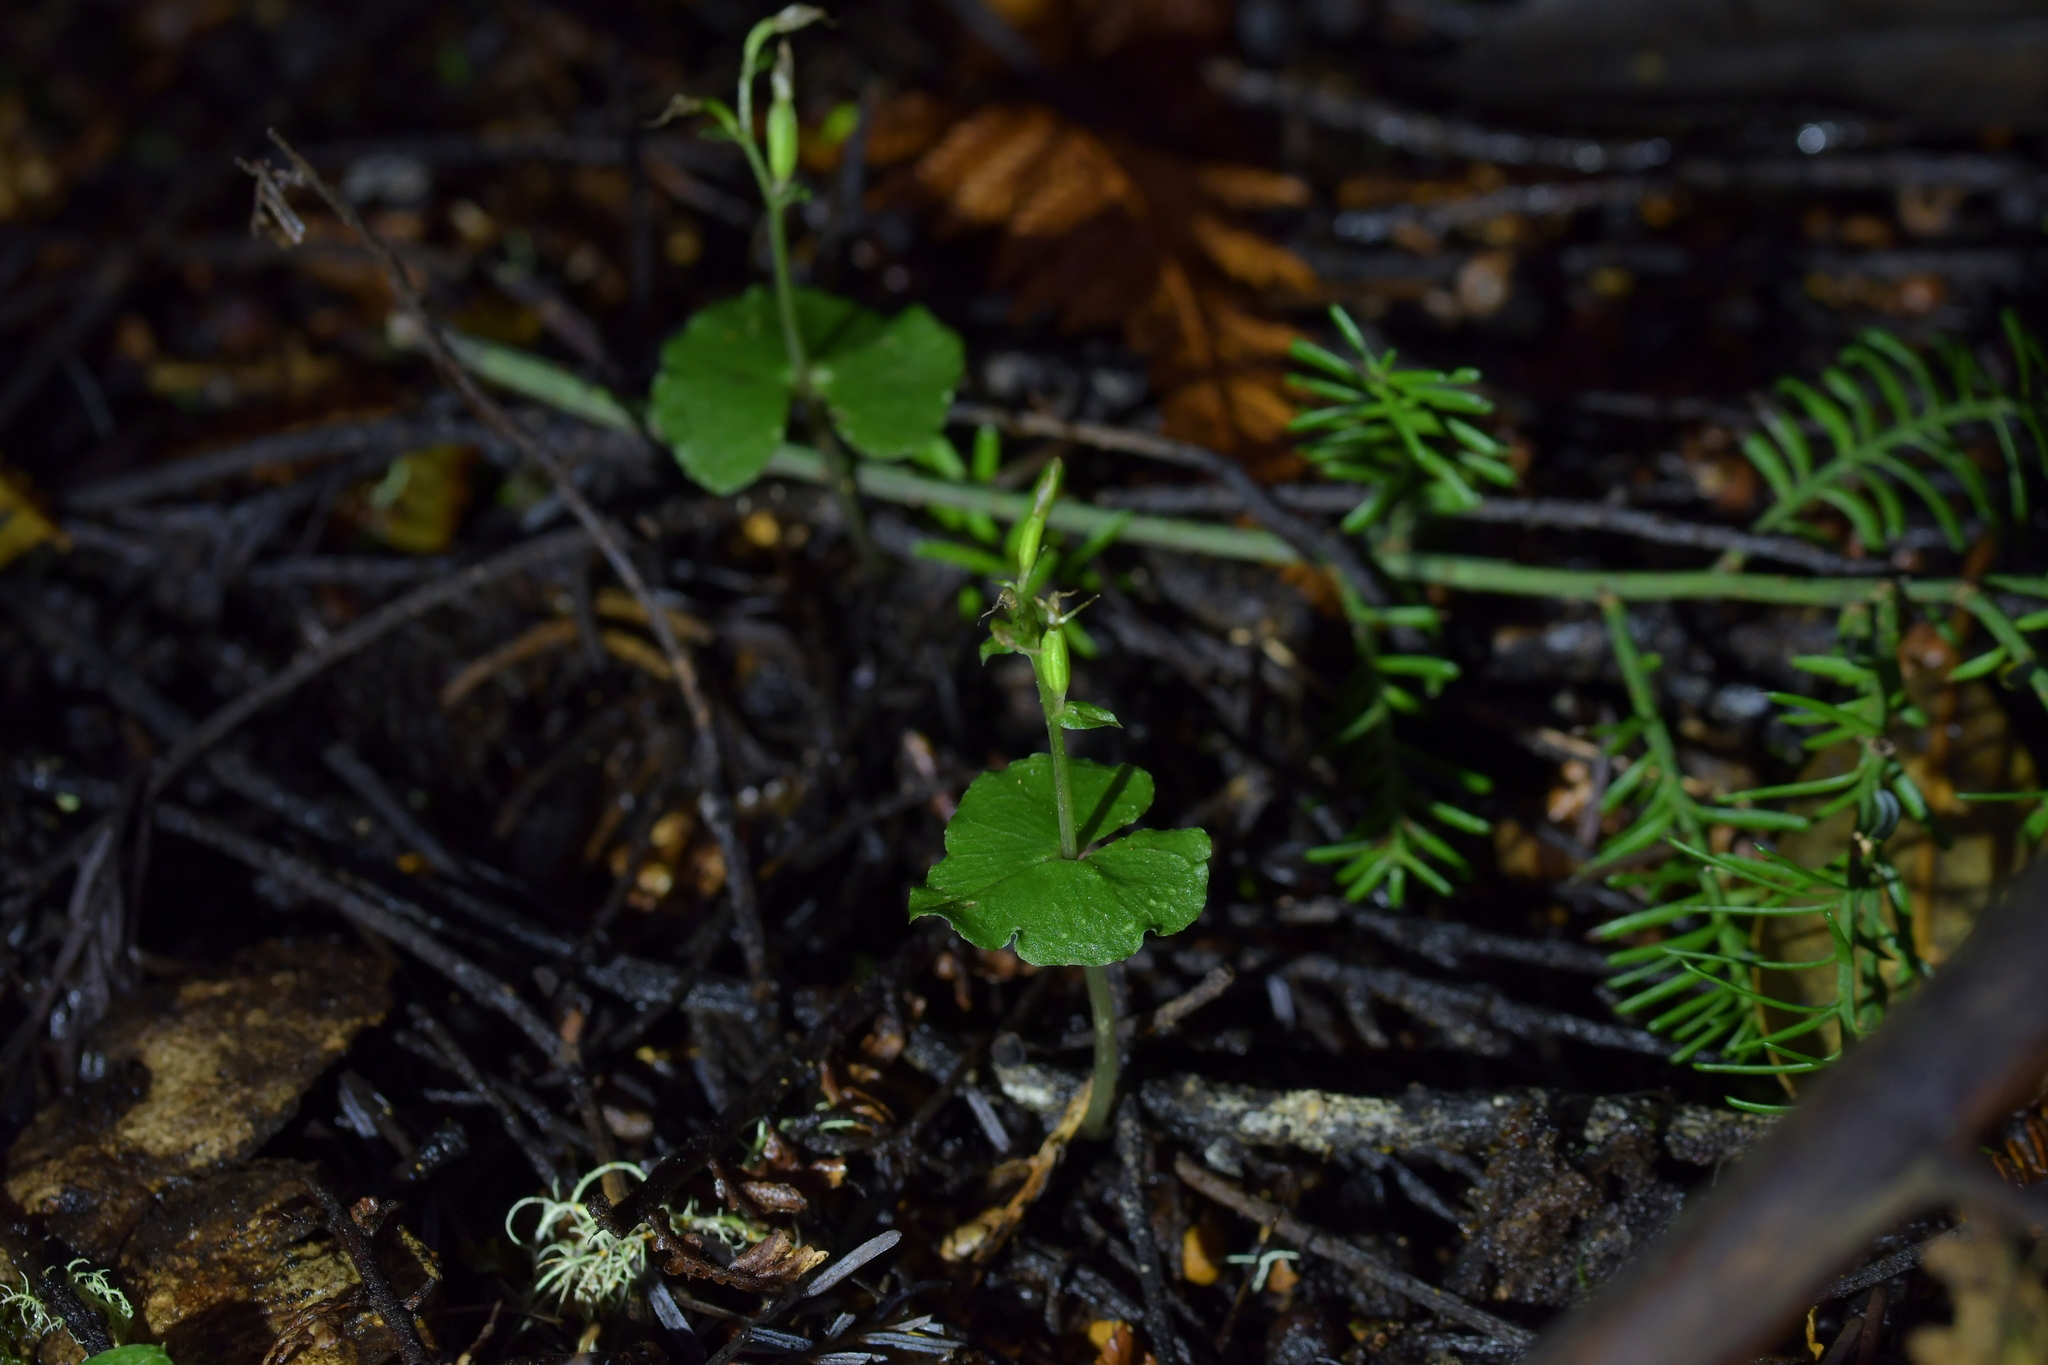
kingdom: Plantae
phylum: Tracheophyta
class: Liliopsida
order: Asparagales
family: Orchidaceae
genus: Acianthus
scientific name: Acianthus sinclairii
